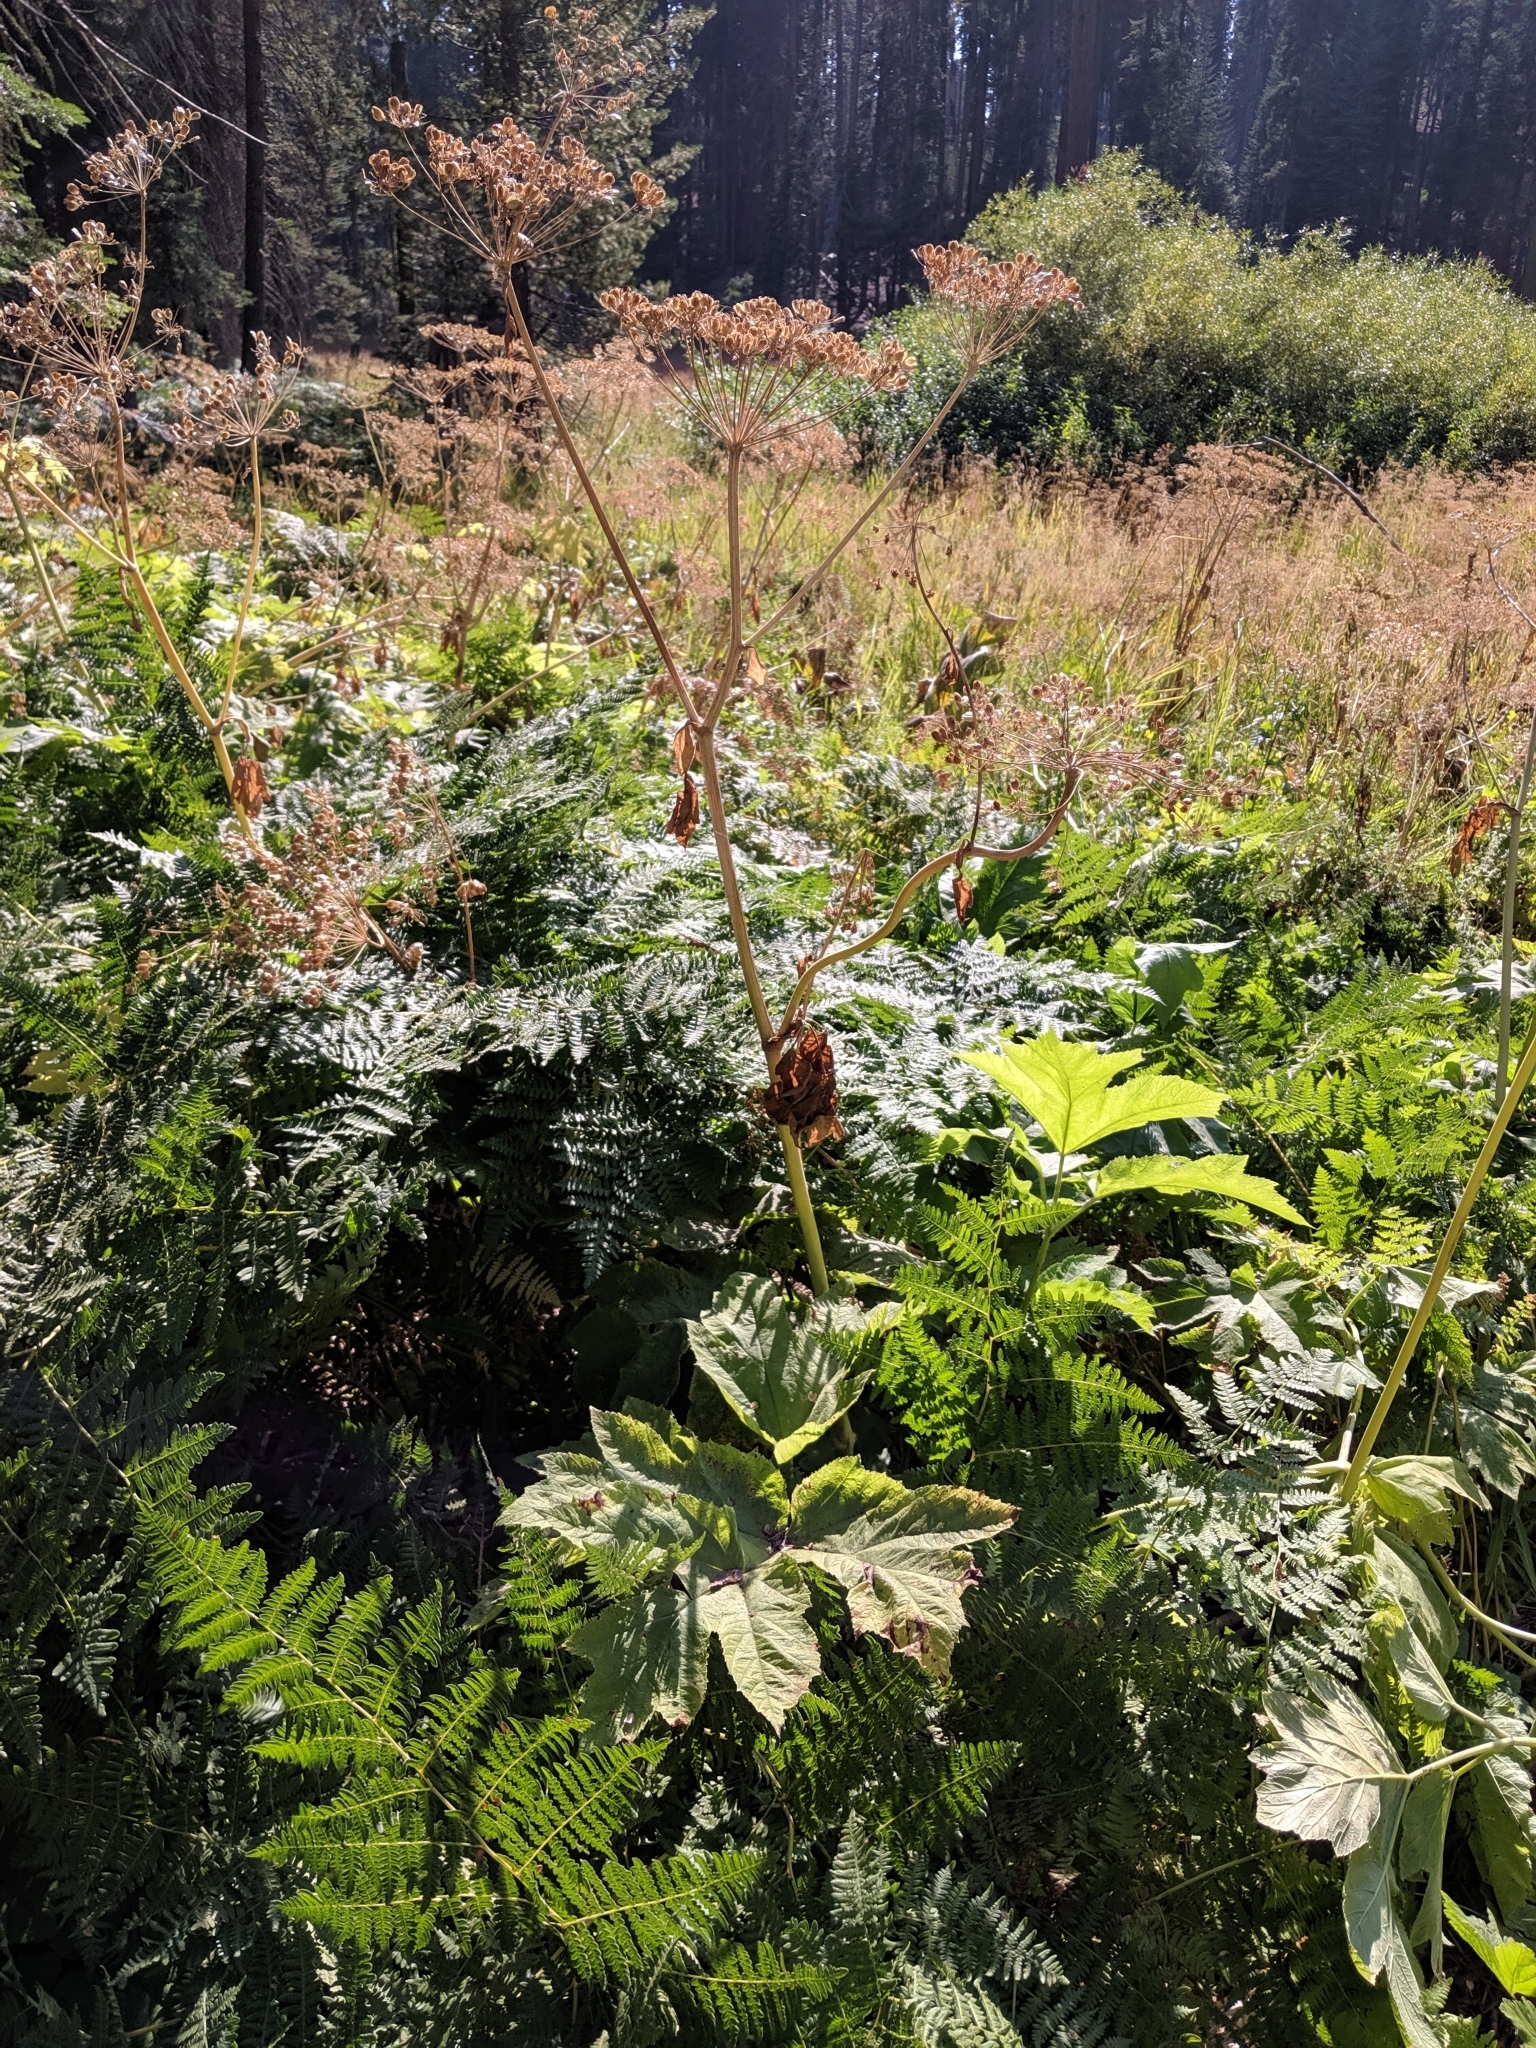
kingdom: Plantae
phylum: Tracheophyta
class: Magnoliopsida
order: Apiales
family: Apiaceae
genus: Heracleum
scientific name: Heracleum maximum
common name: American cow parsnip
